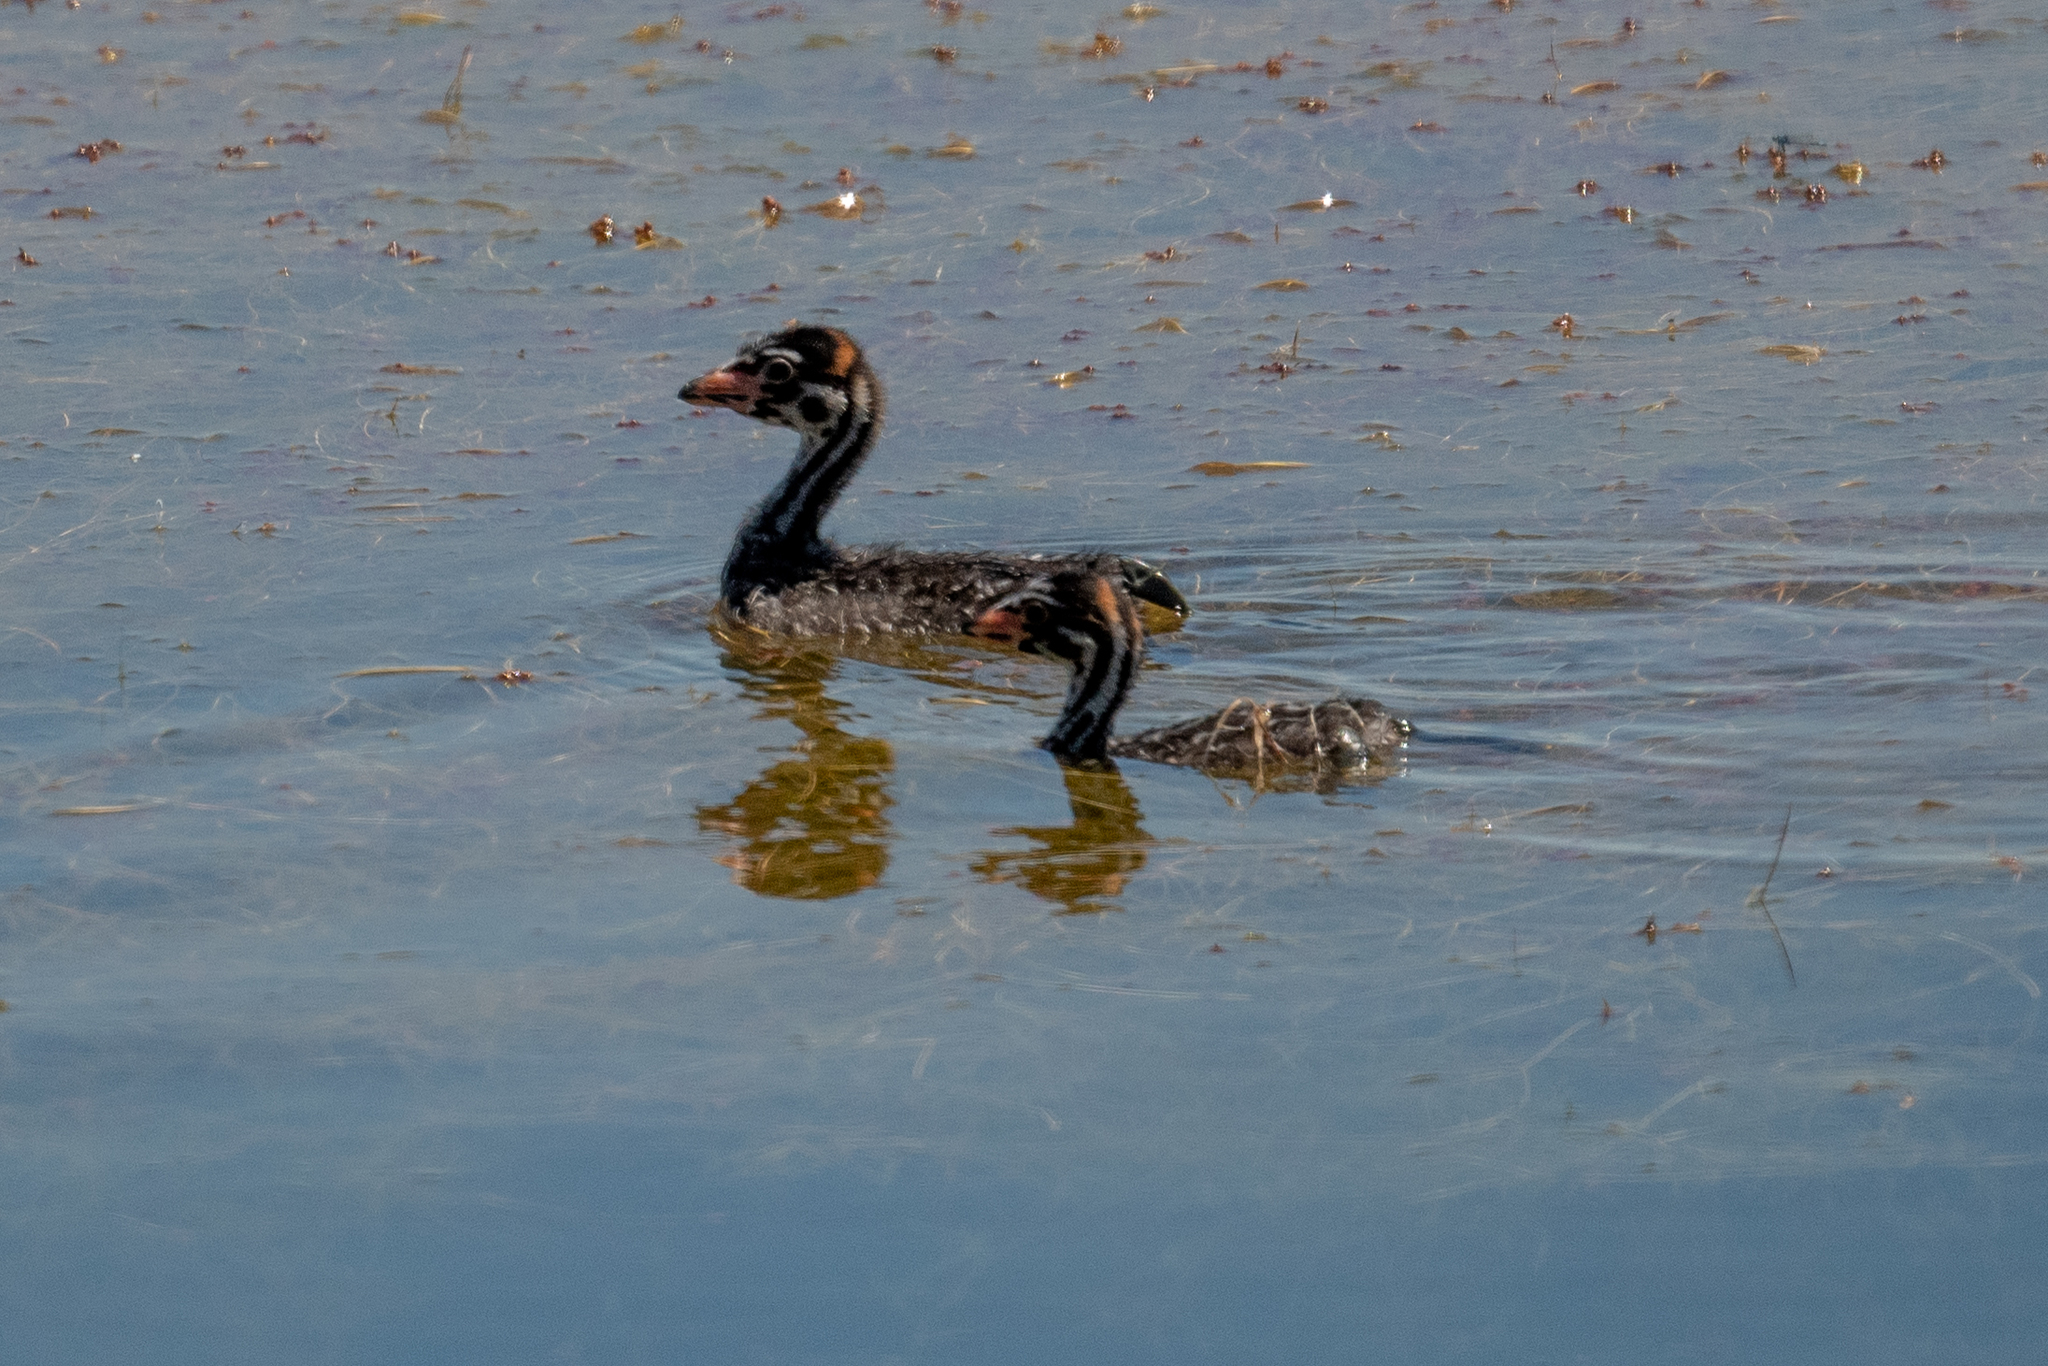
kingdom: Animalia
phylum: Chordata
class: Aves
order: Podicipediformes
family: Podicipedidae
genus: Podilymbus
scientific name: Podilymbus podiceps
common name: Pied-billed grebe
